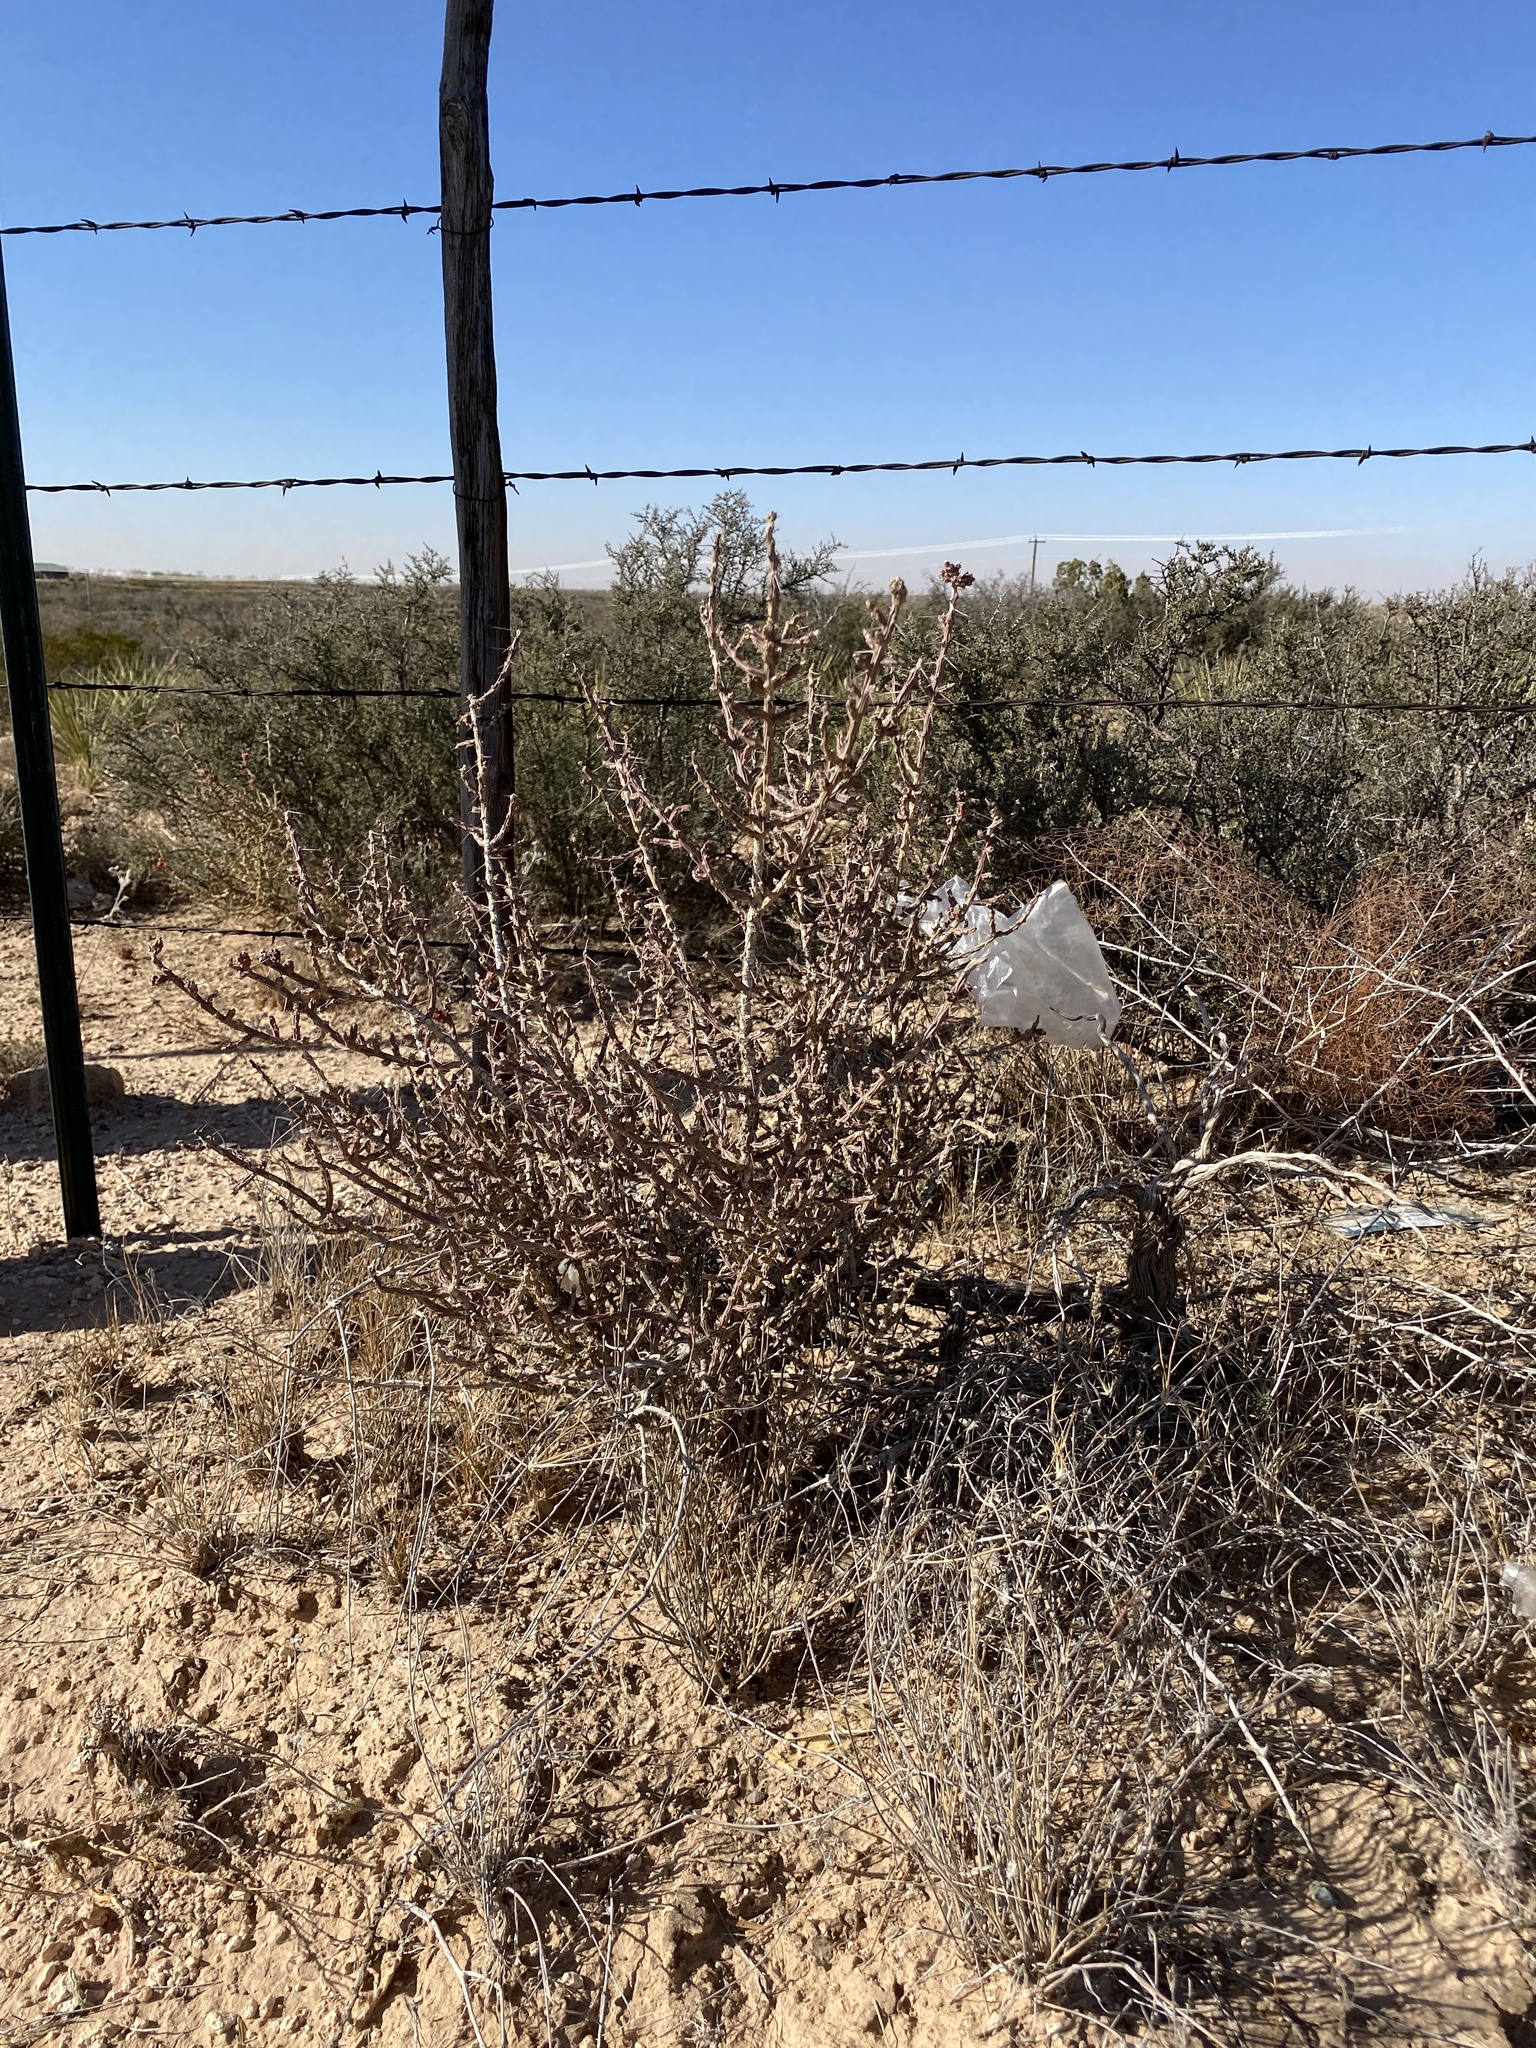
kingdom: Plantae
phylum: Tracheophyta
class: Magnoliopsida
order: Caryophyllales
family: Cactaceae
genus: Cylindropuntia
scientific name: Cylindropuntia leptocaulis
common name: Christmas cactus
